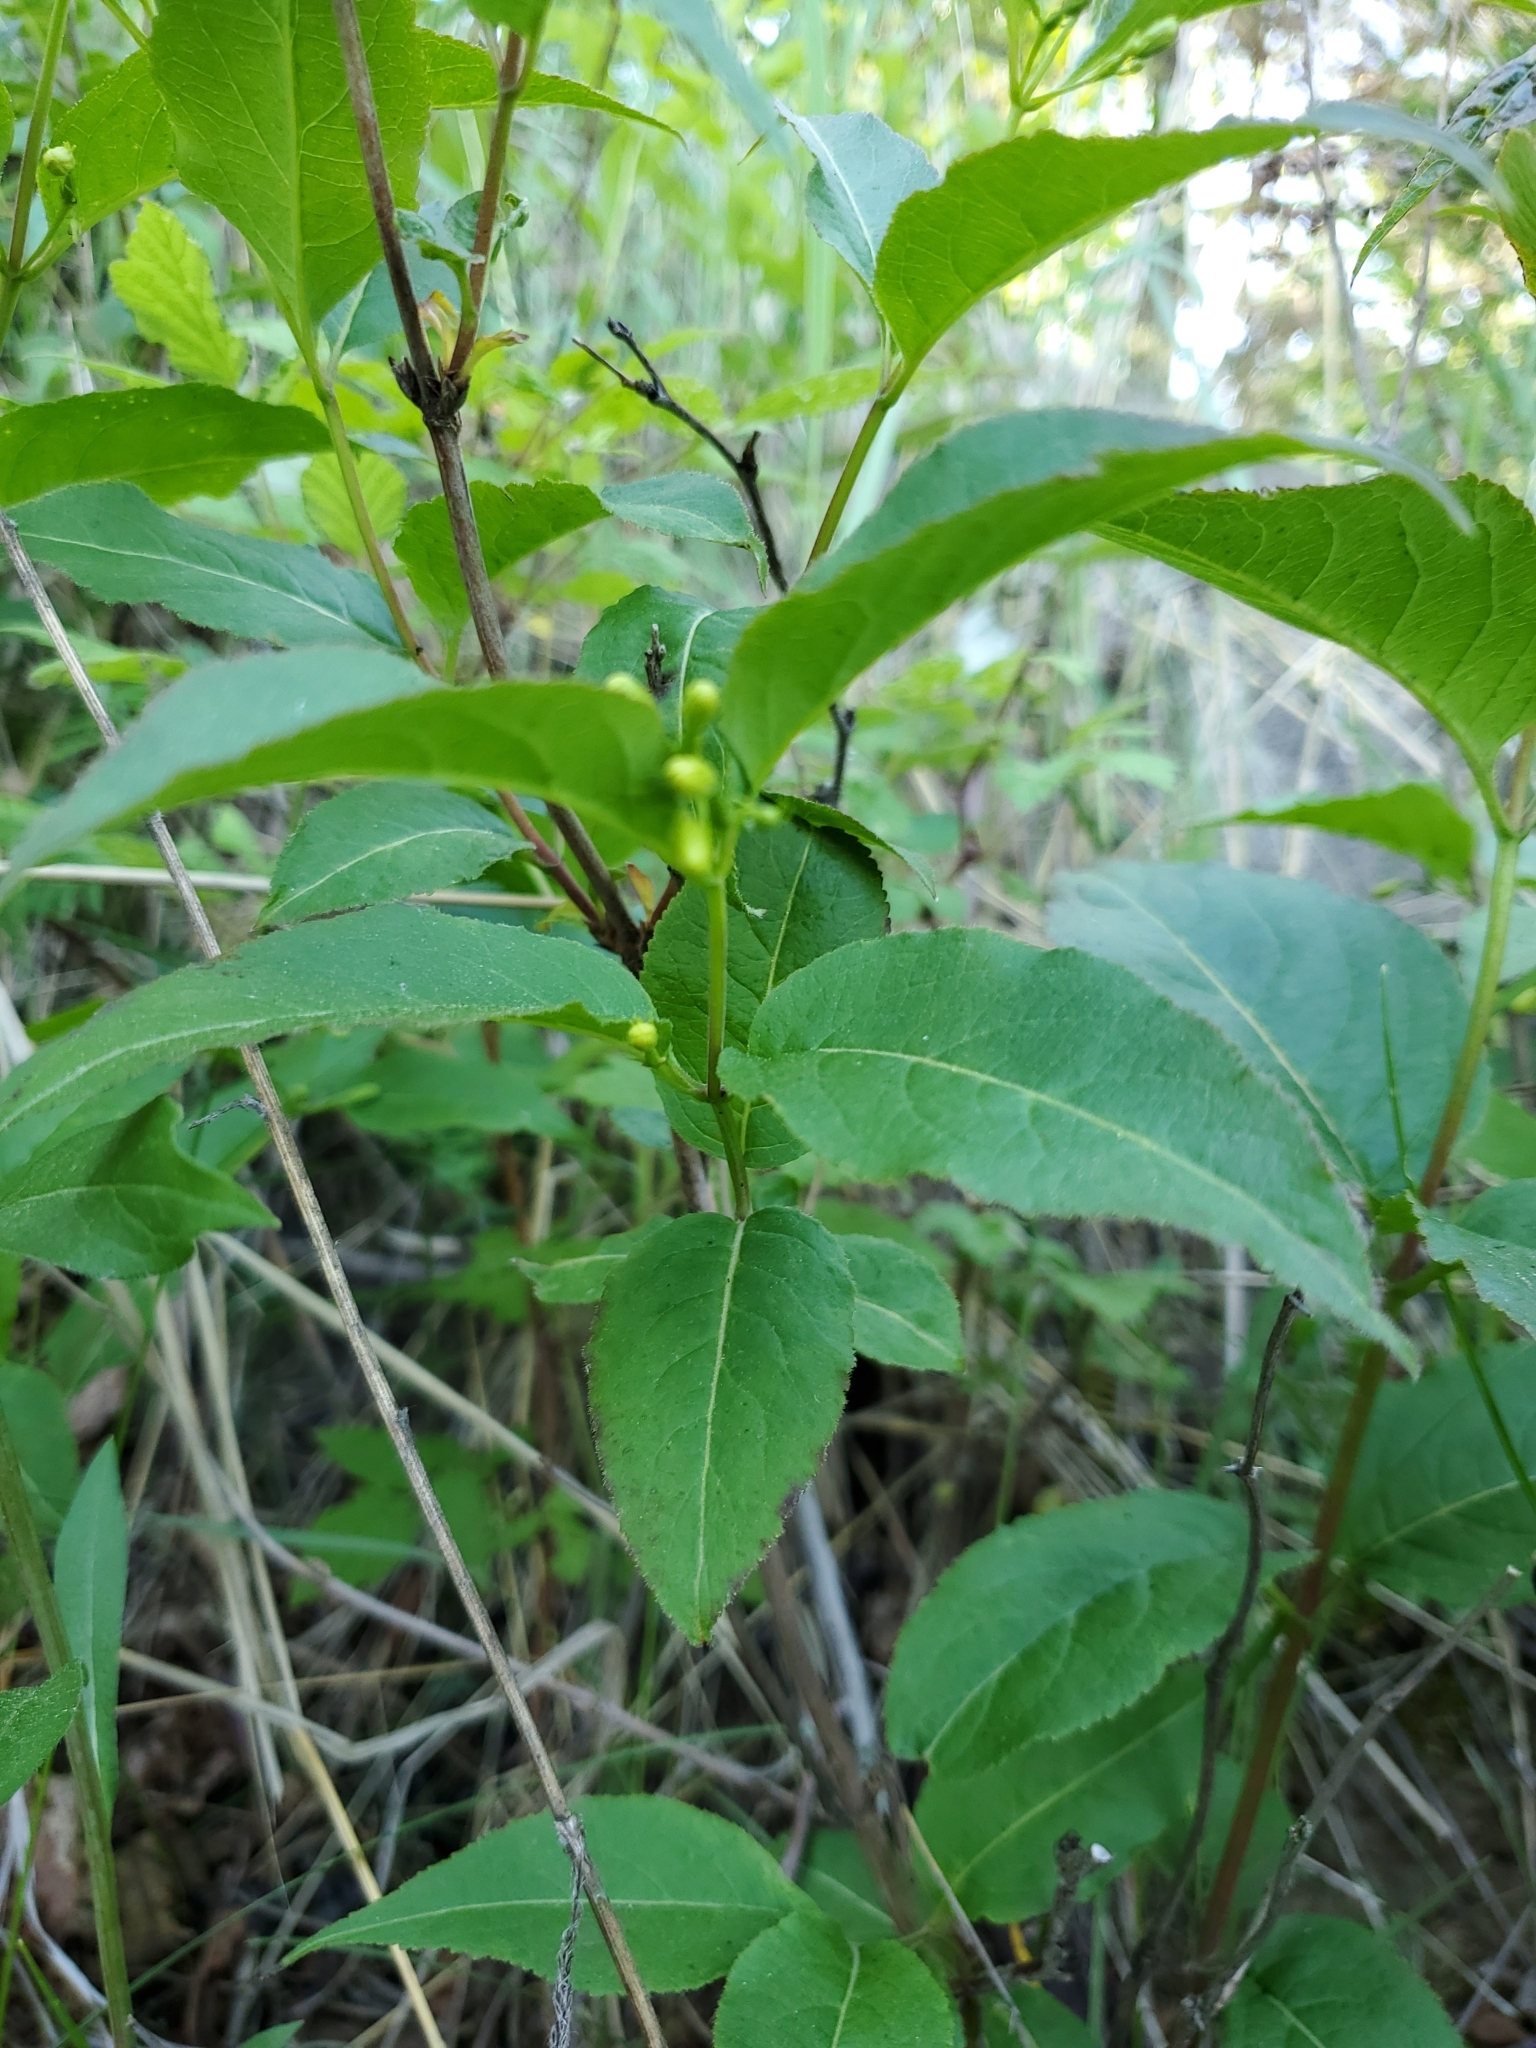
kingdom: Plantae
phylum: Tracheophyta
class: Magnoliopsida
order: Dipsacales
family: Caprifoliaceae
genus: Diervilla
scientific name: Diervilla lonicera
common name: Bush-honeysuckle
